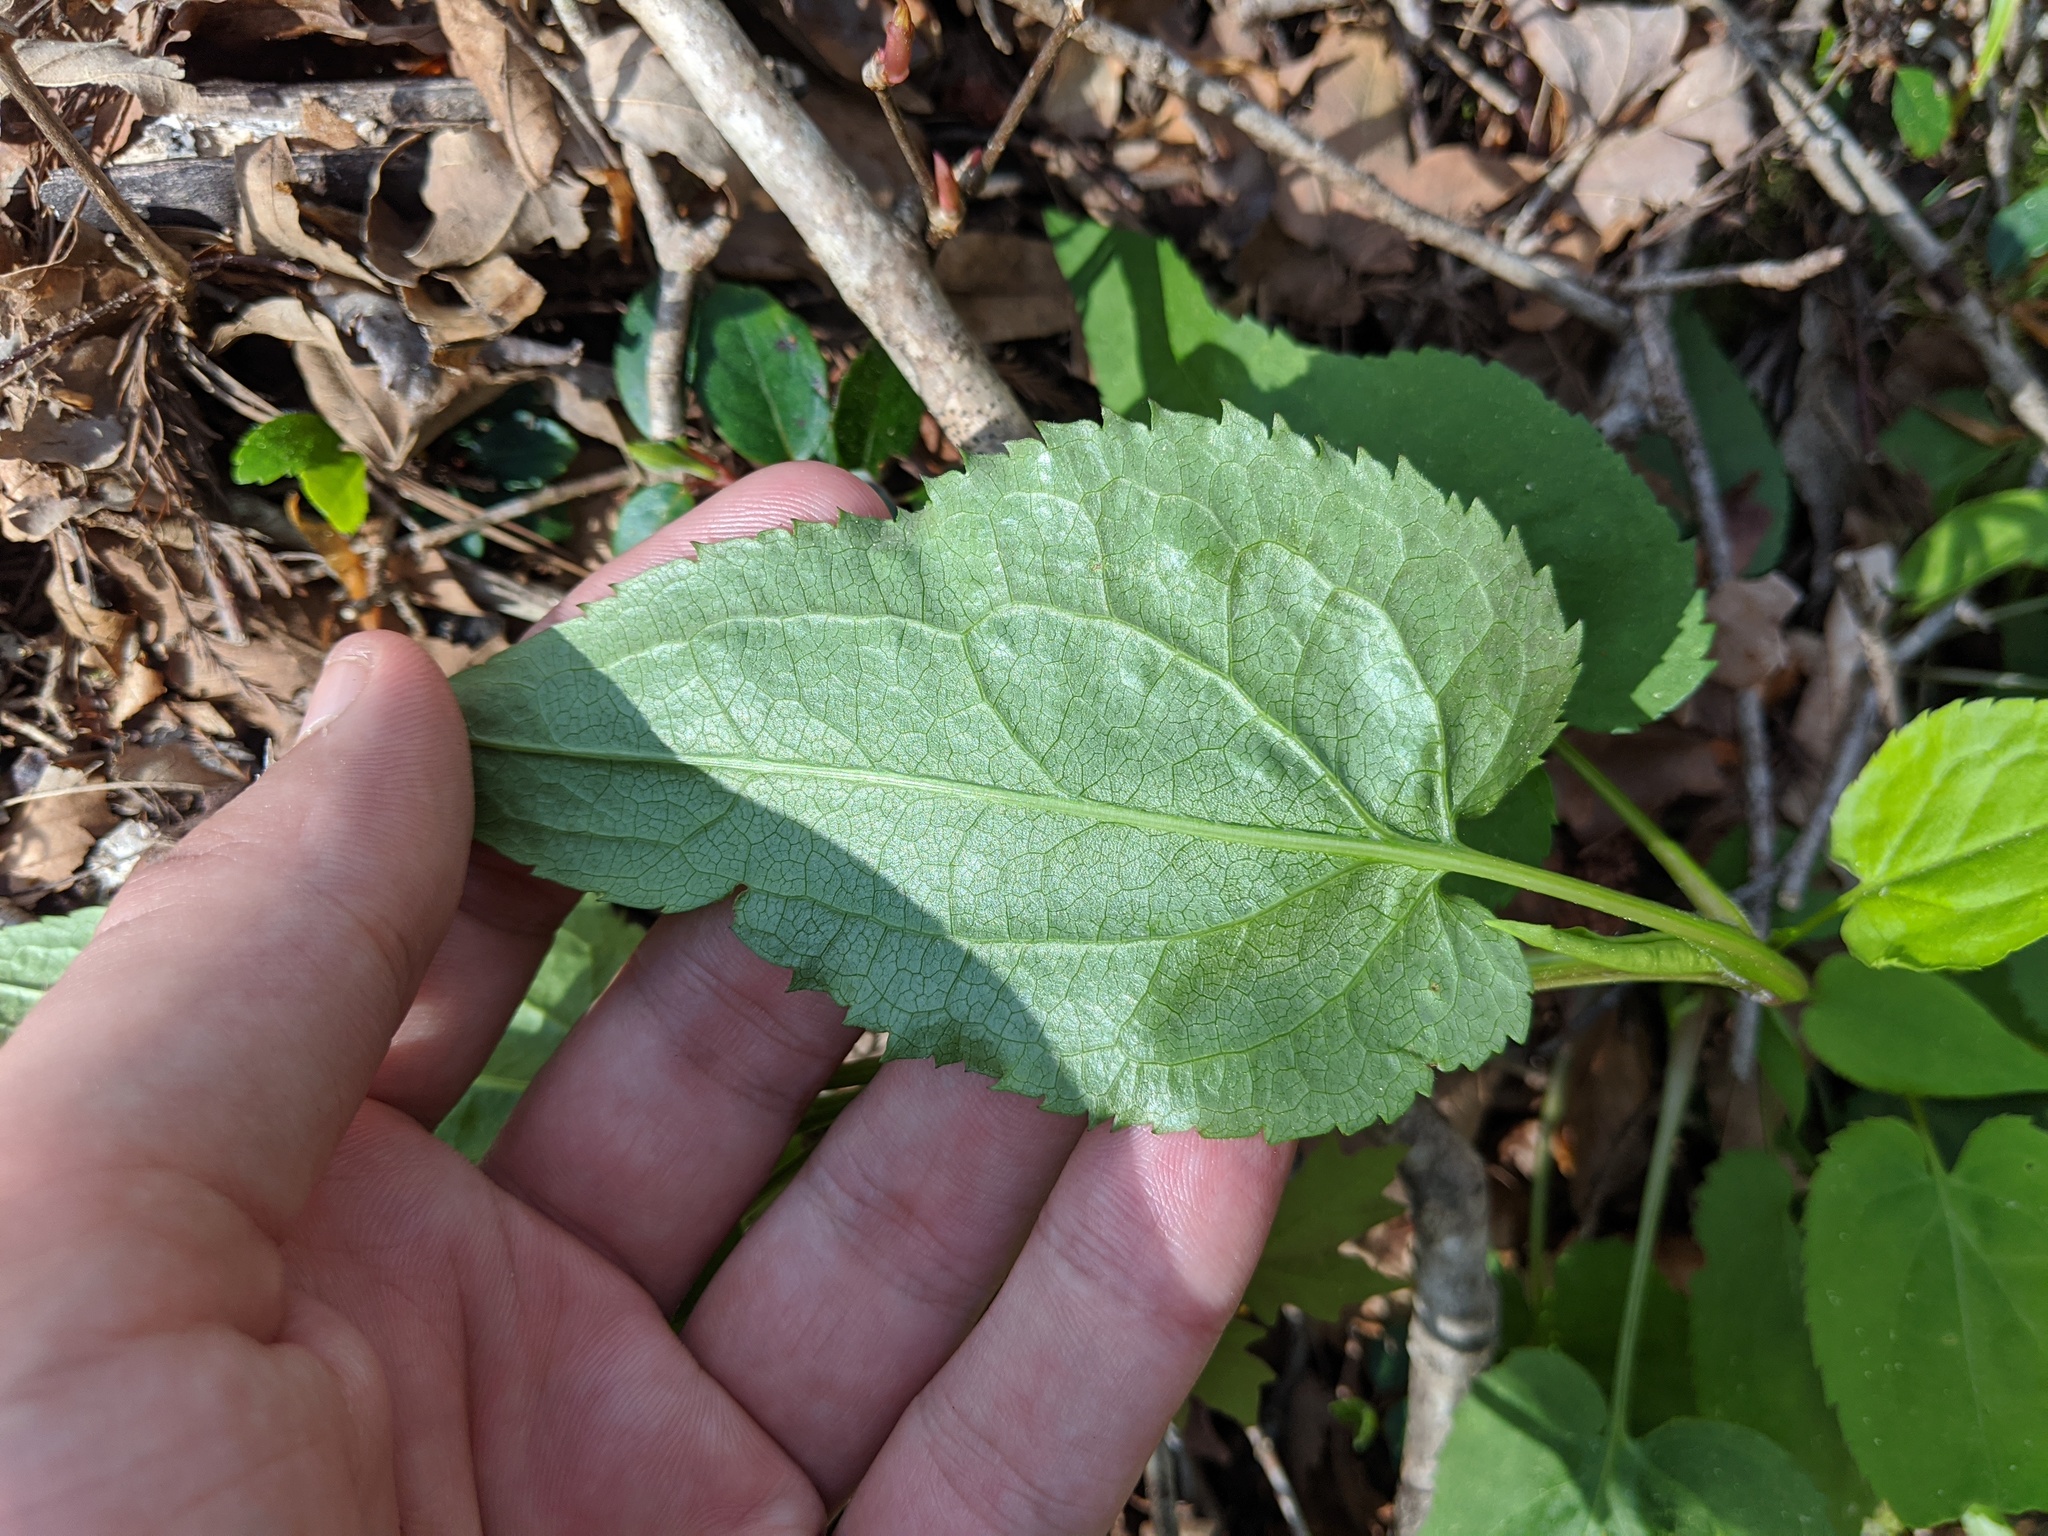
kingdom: Plantae
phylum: Tracheophyta
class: Magnoliopsida
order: Asterales
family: Asteraceae
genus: Symphyotrichum
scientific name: Symphyotrichum cordifolium
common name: Beeweed
